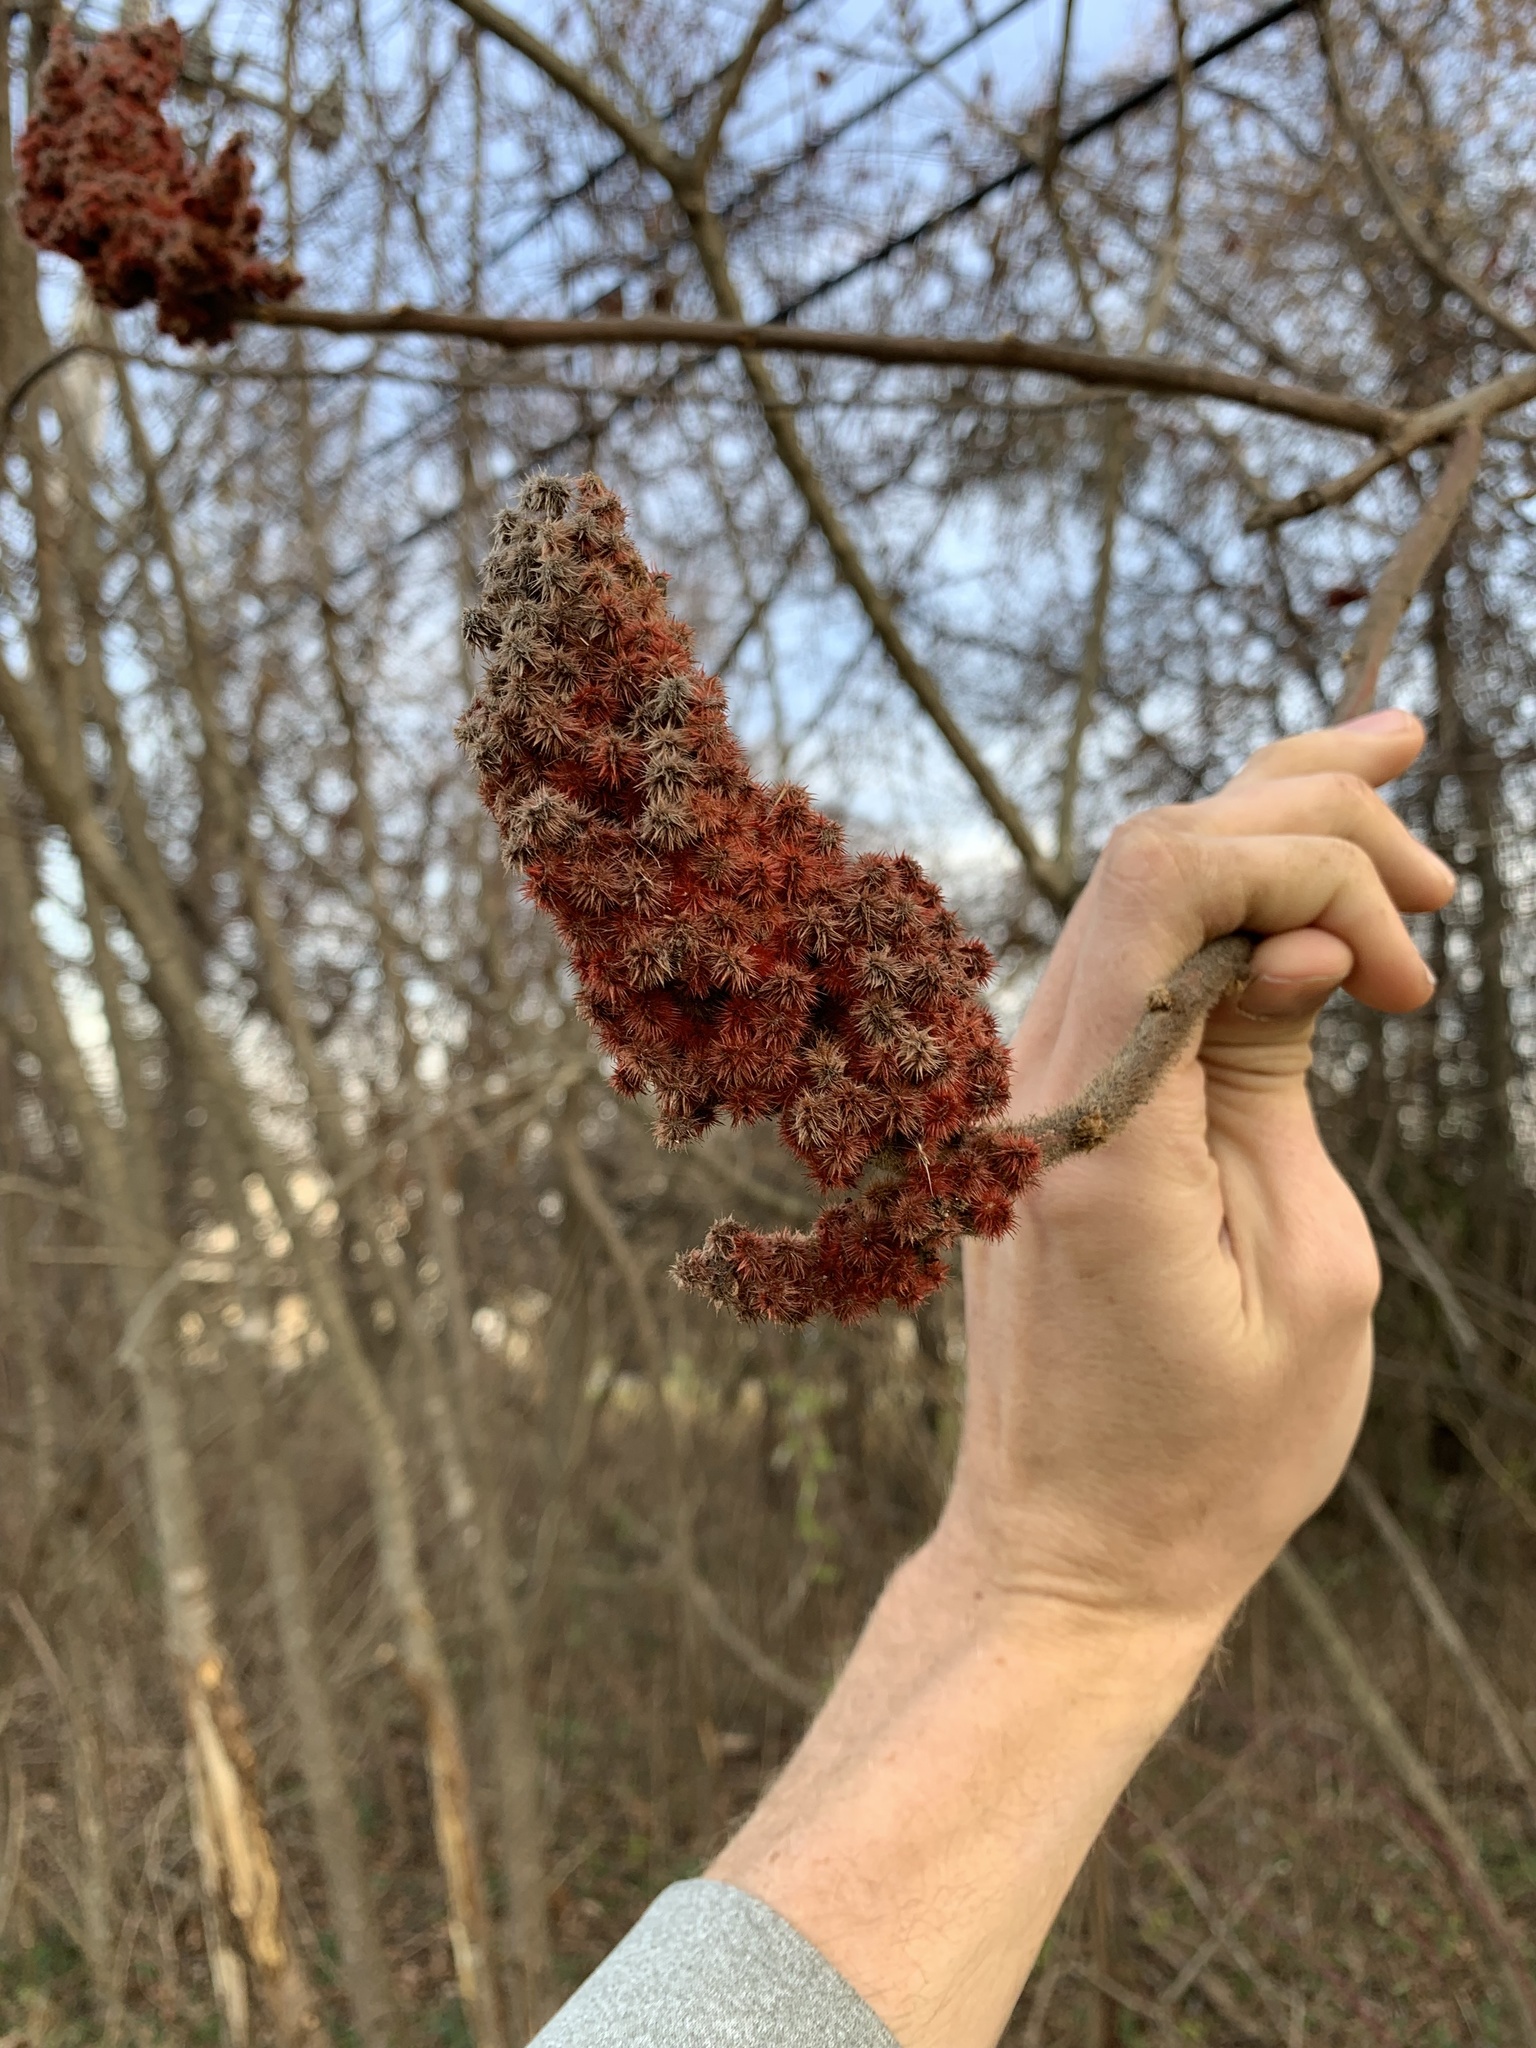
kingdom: Plantae
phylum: Tracheophyta
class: Magnoliopsida
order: Sapindales
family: Anacardiaceae
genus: Rhus
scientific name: Rhus typhina
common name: Staghorn sumac
